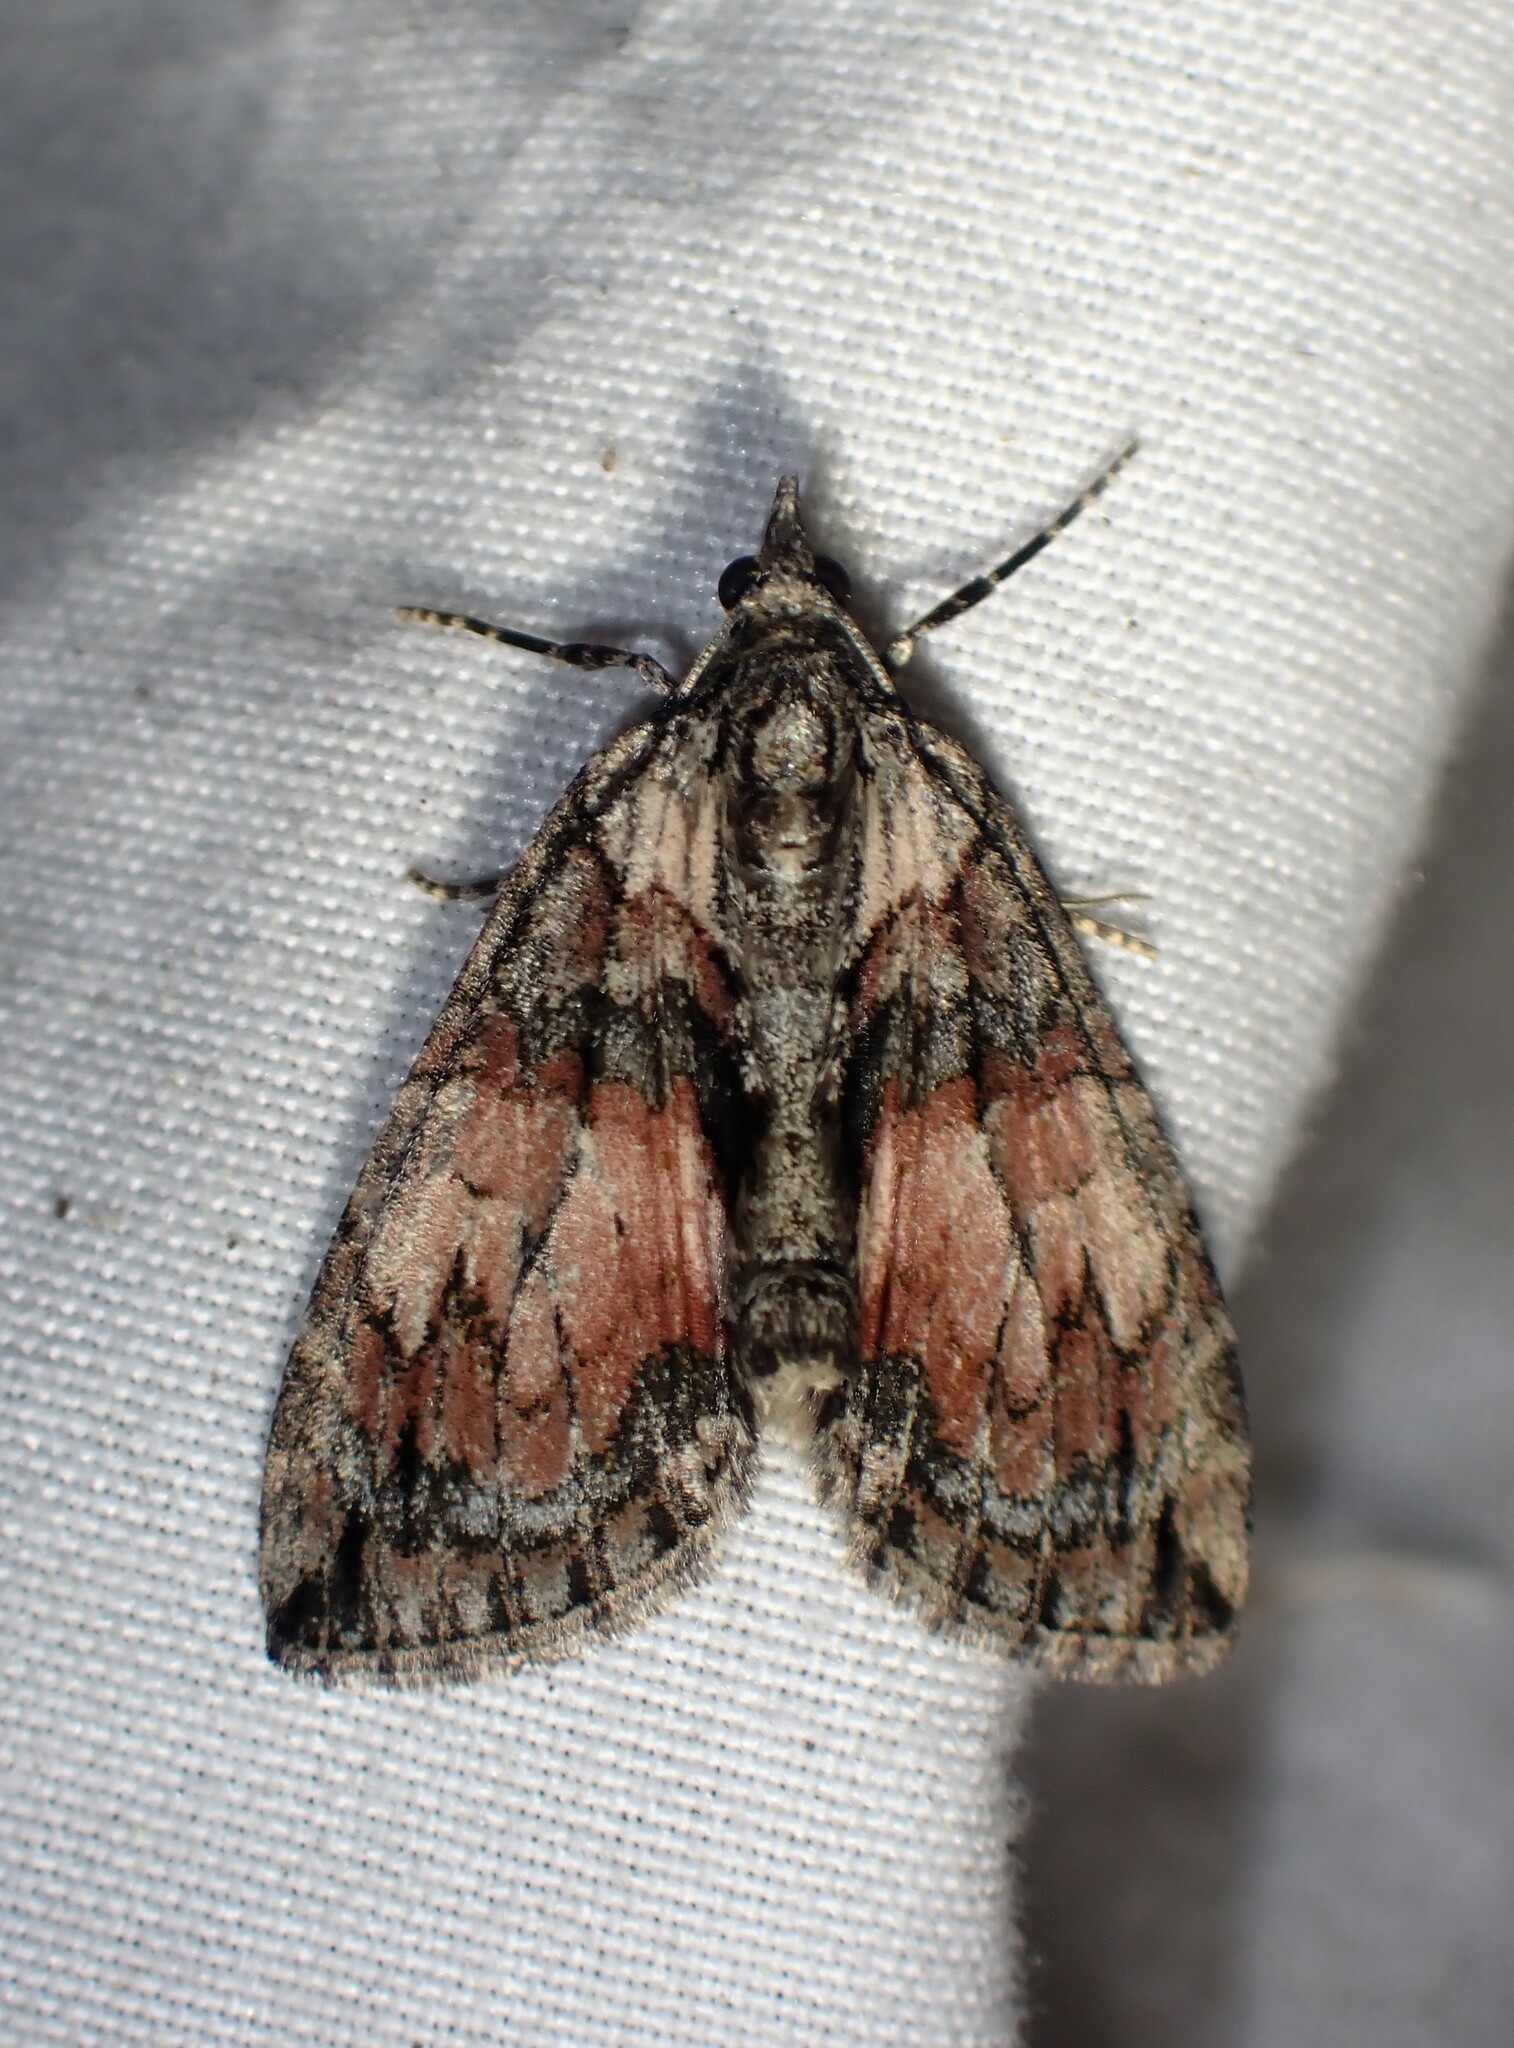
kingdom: Animalia
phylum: Arthropoda
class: Insecta
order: Lepidoptera
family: Geometridae
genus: Hydriomena
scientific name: Hydriomena perfracta
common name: Shattered hydriomena moth
